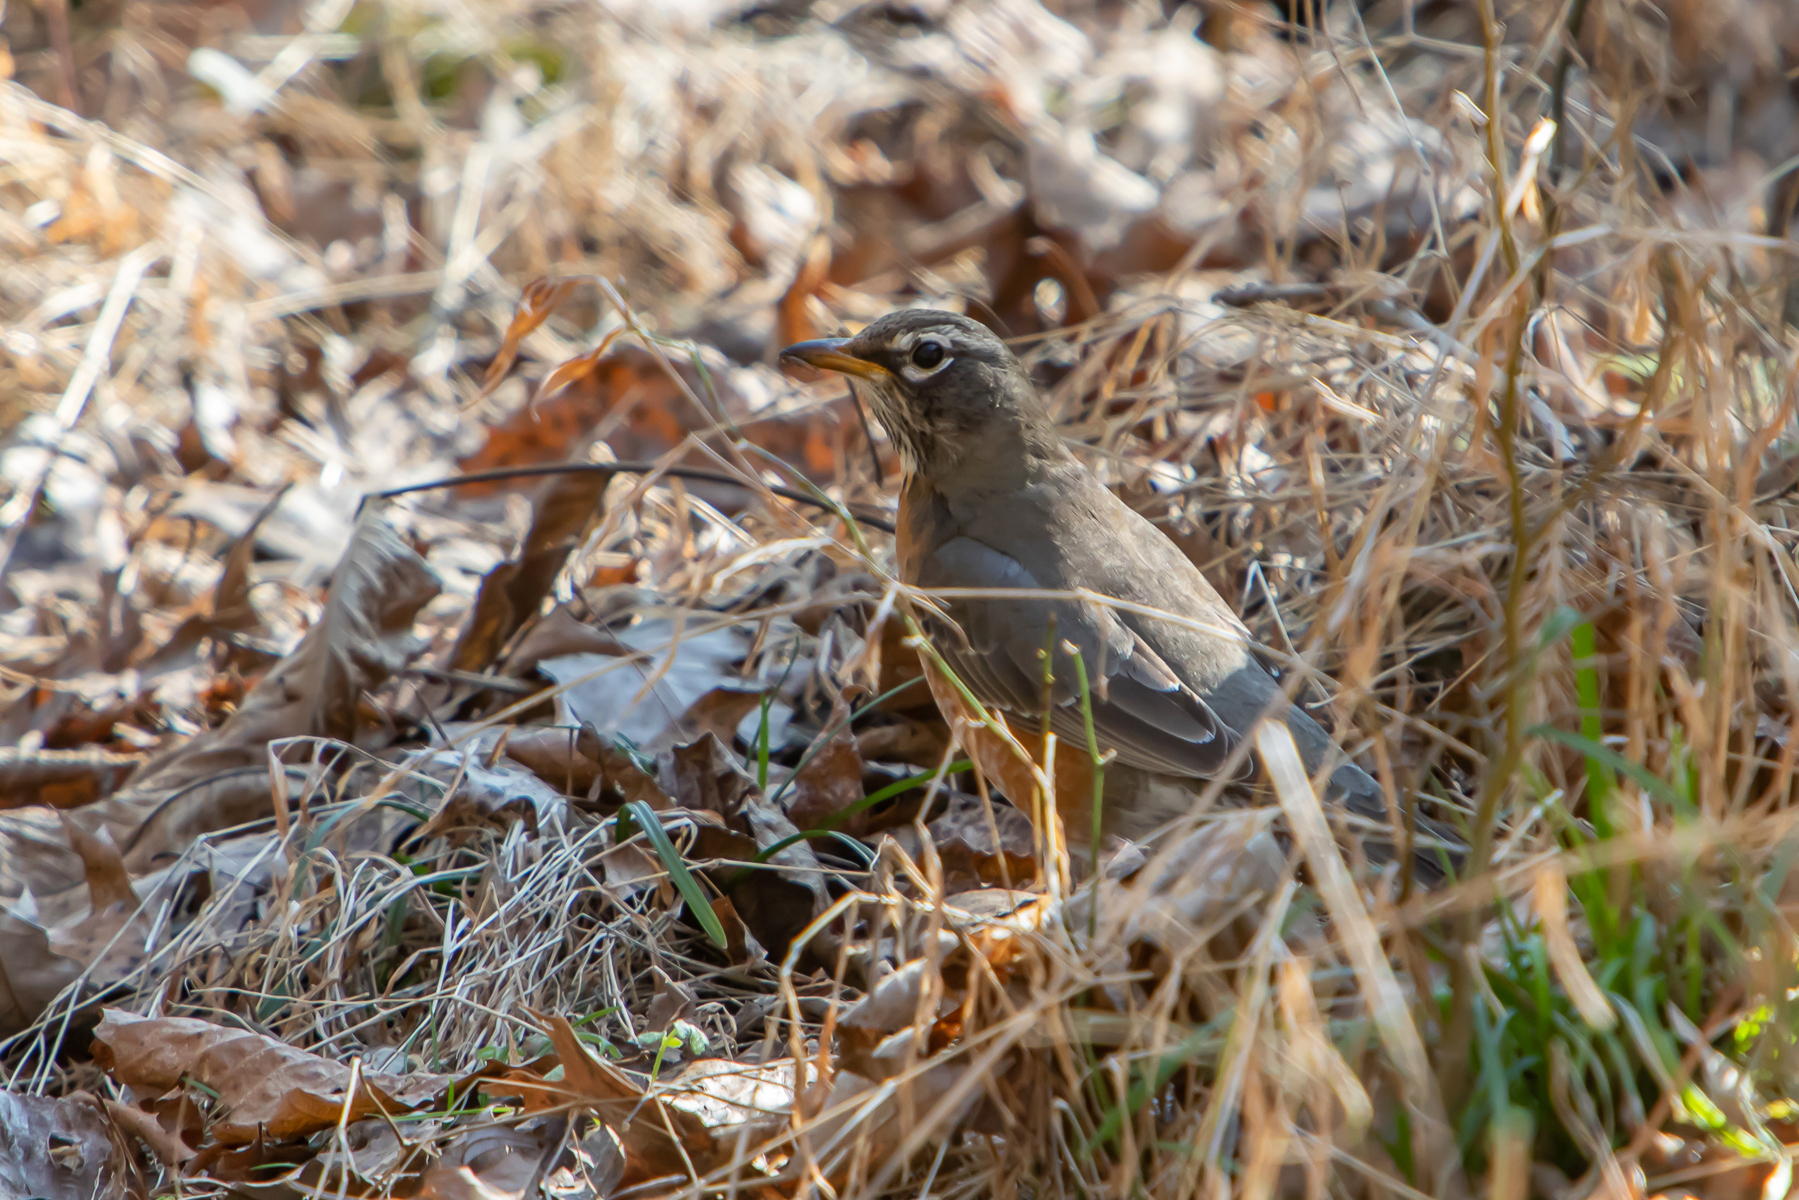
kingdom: Animalia
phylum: Chordata
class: Aves
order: Passeriformes
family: Turdidae
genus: Turdus
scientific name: Turdus migratorius
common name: American robin
